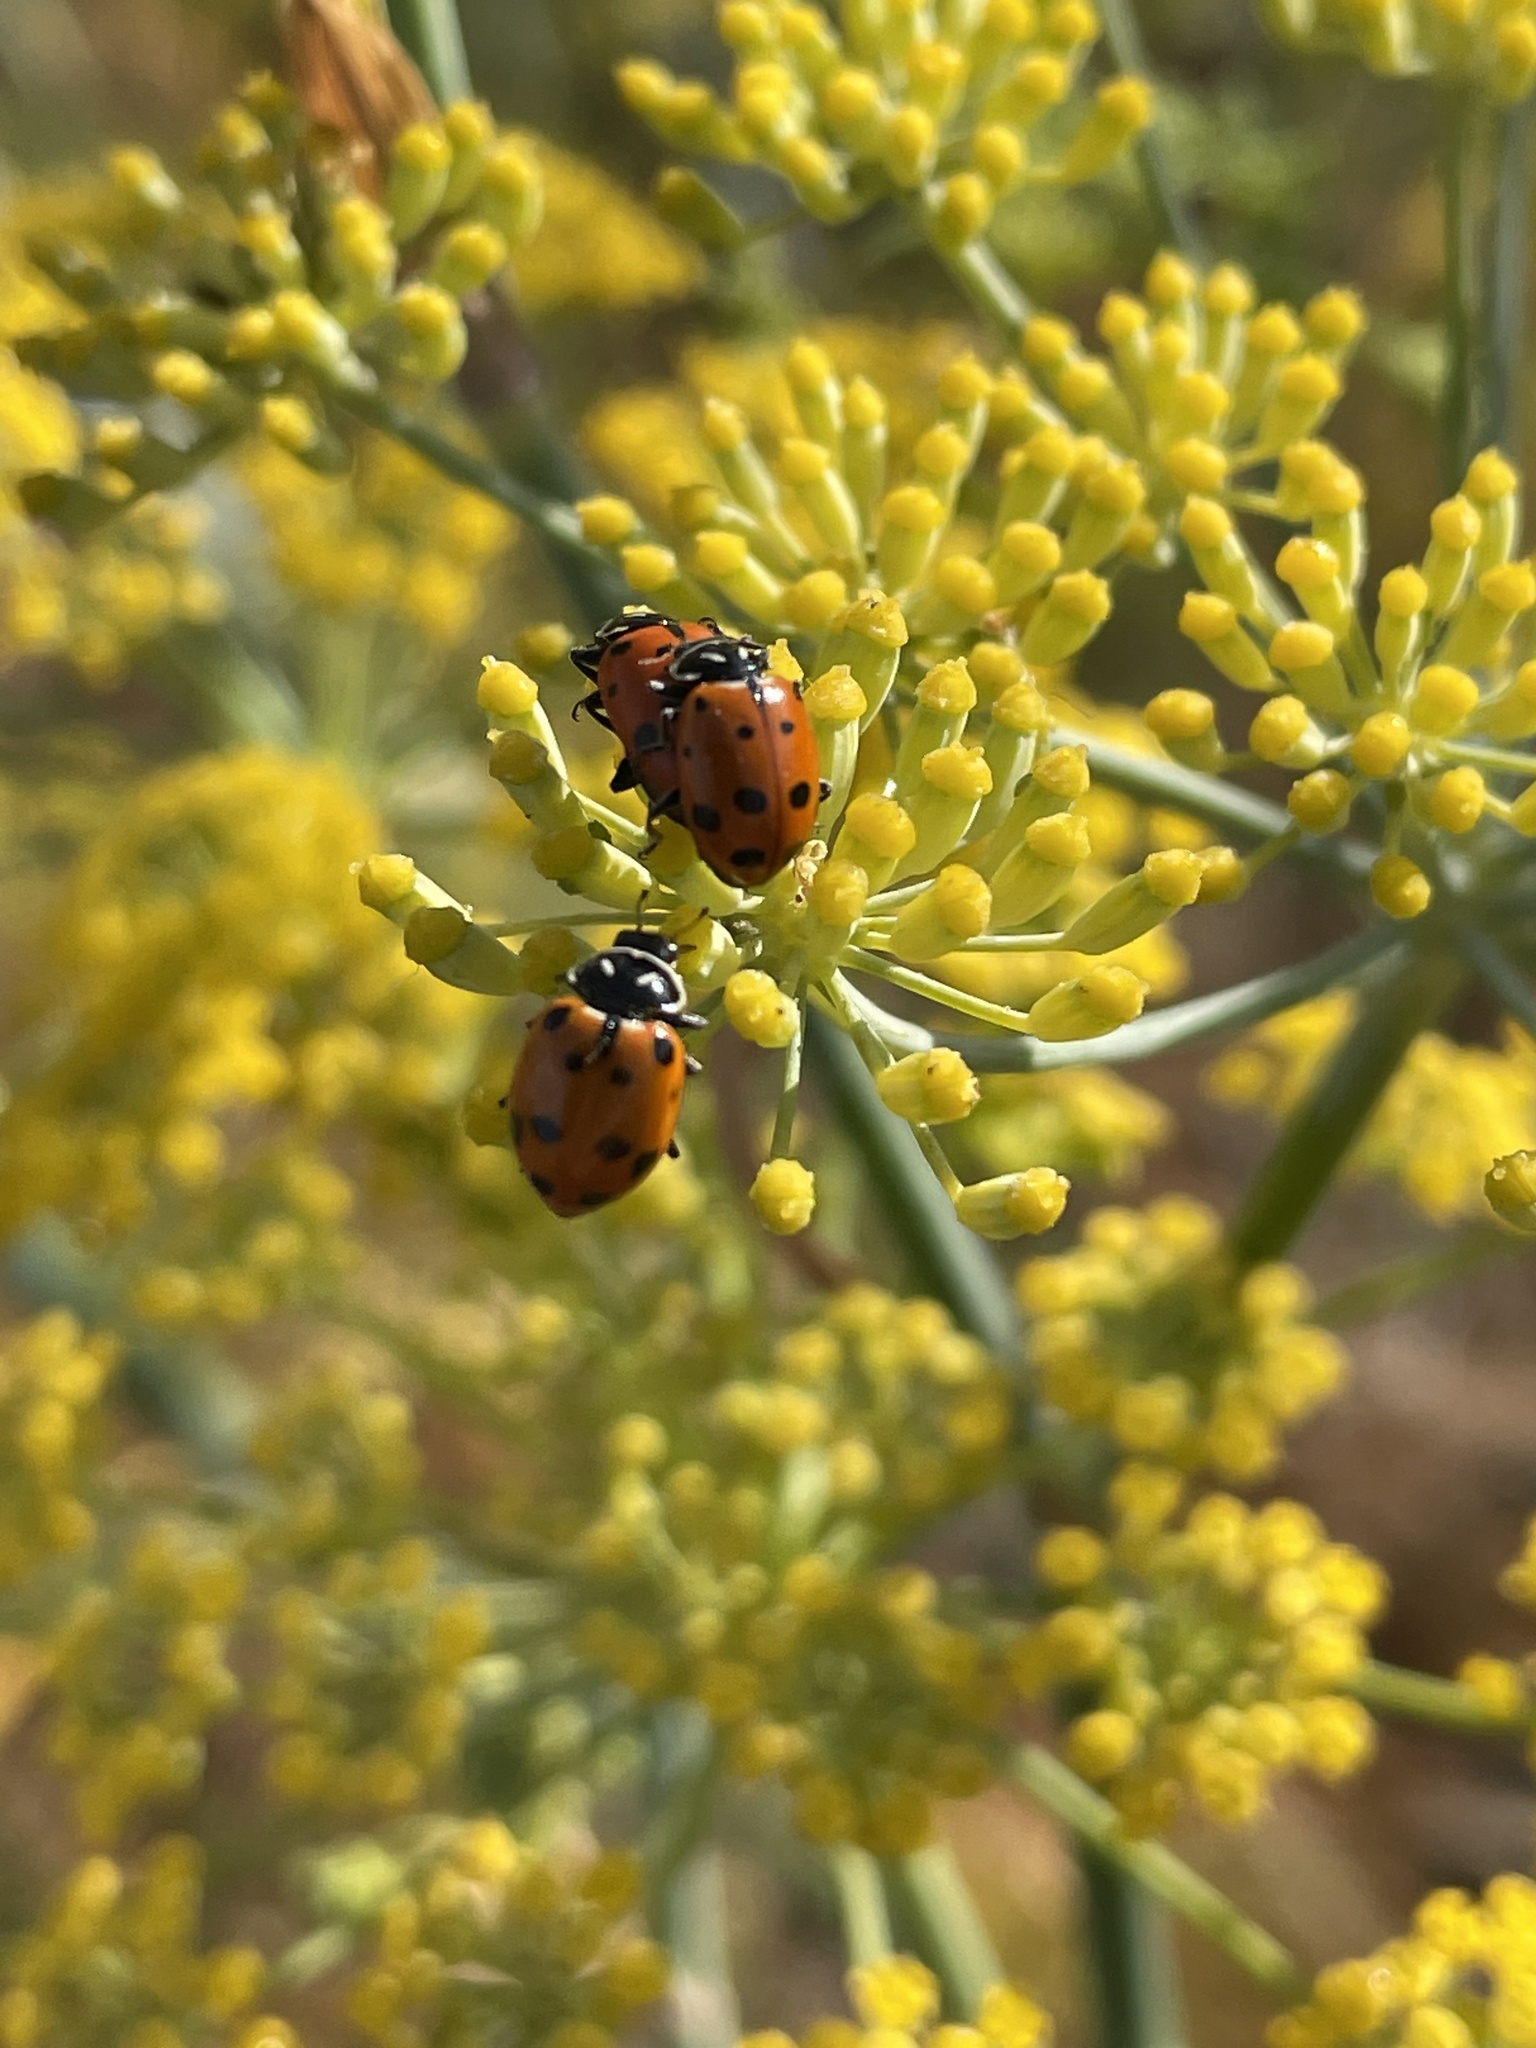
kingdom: Animalia
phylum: Arthropoda
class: Insecta
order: Coleoptera
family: Coccinellidae
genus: Hippodamia
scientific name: Hippodamia convergens
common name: Convergent lady beetle
